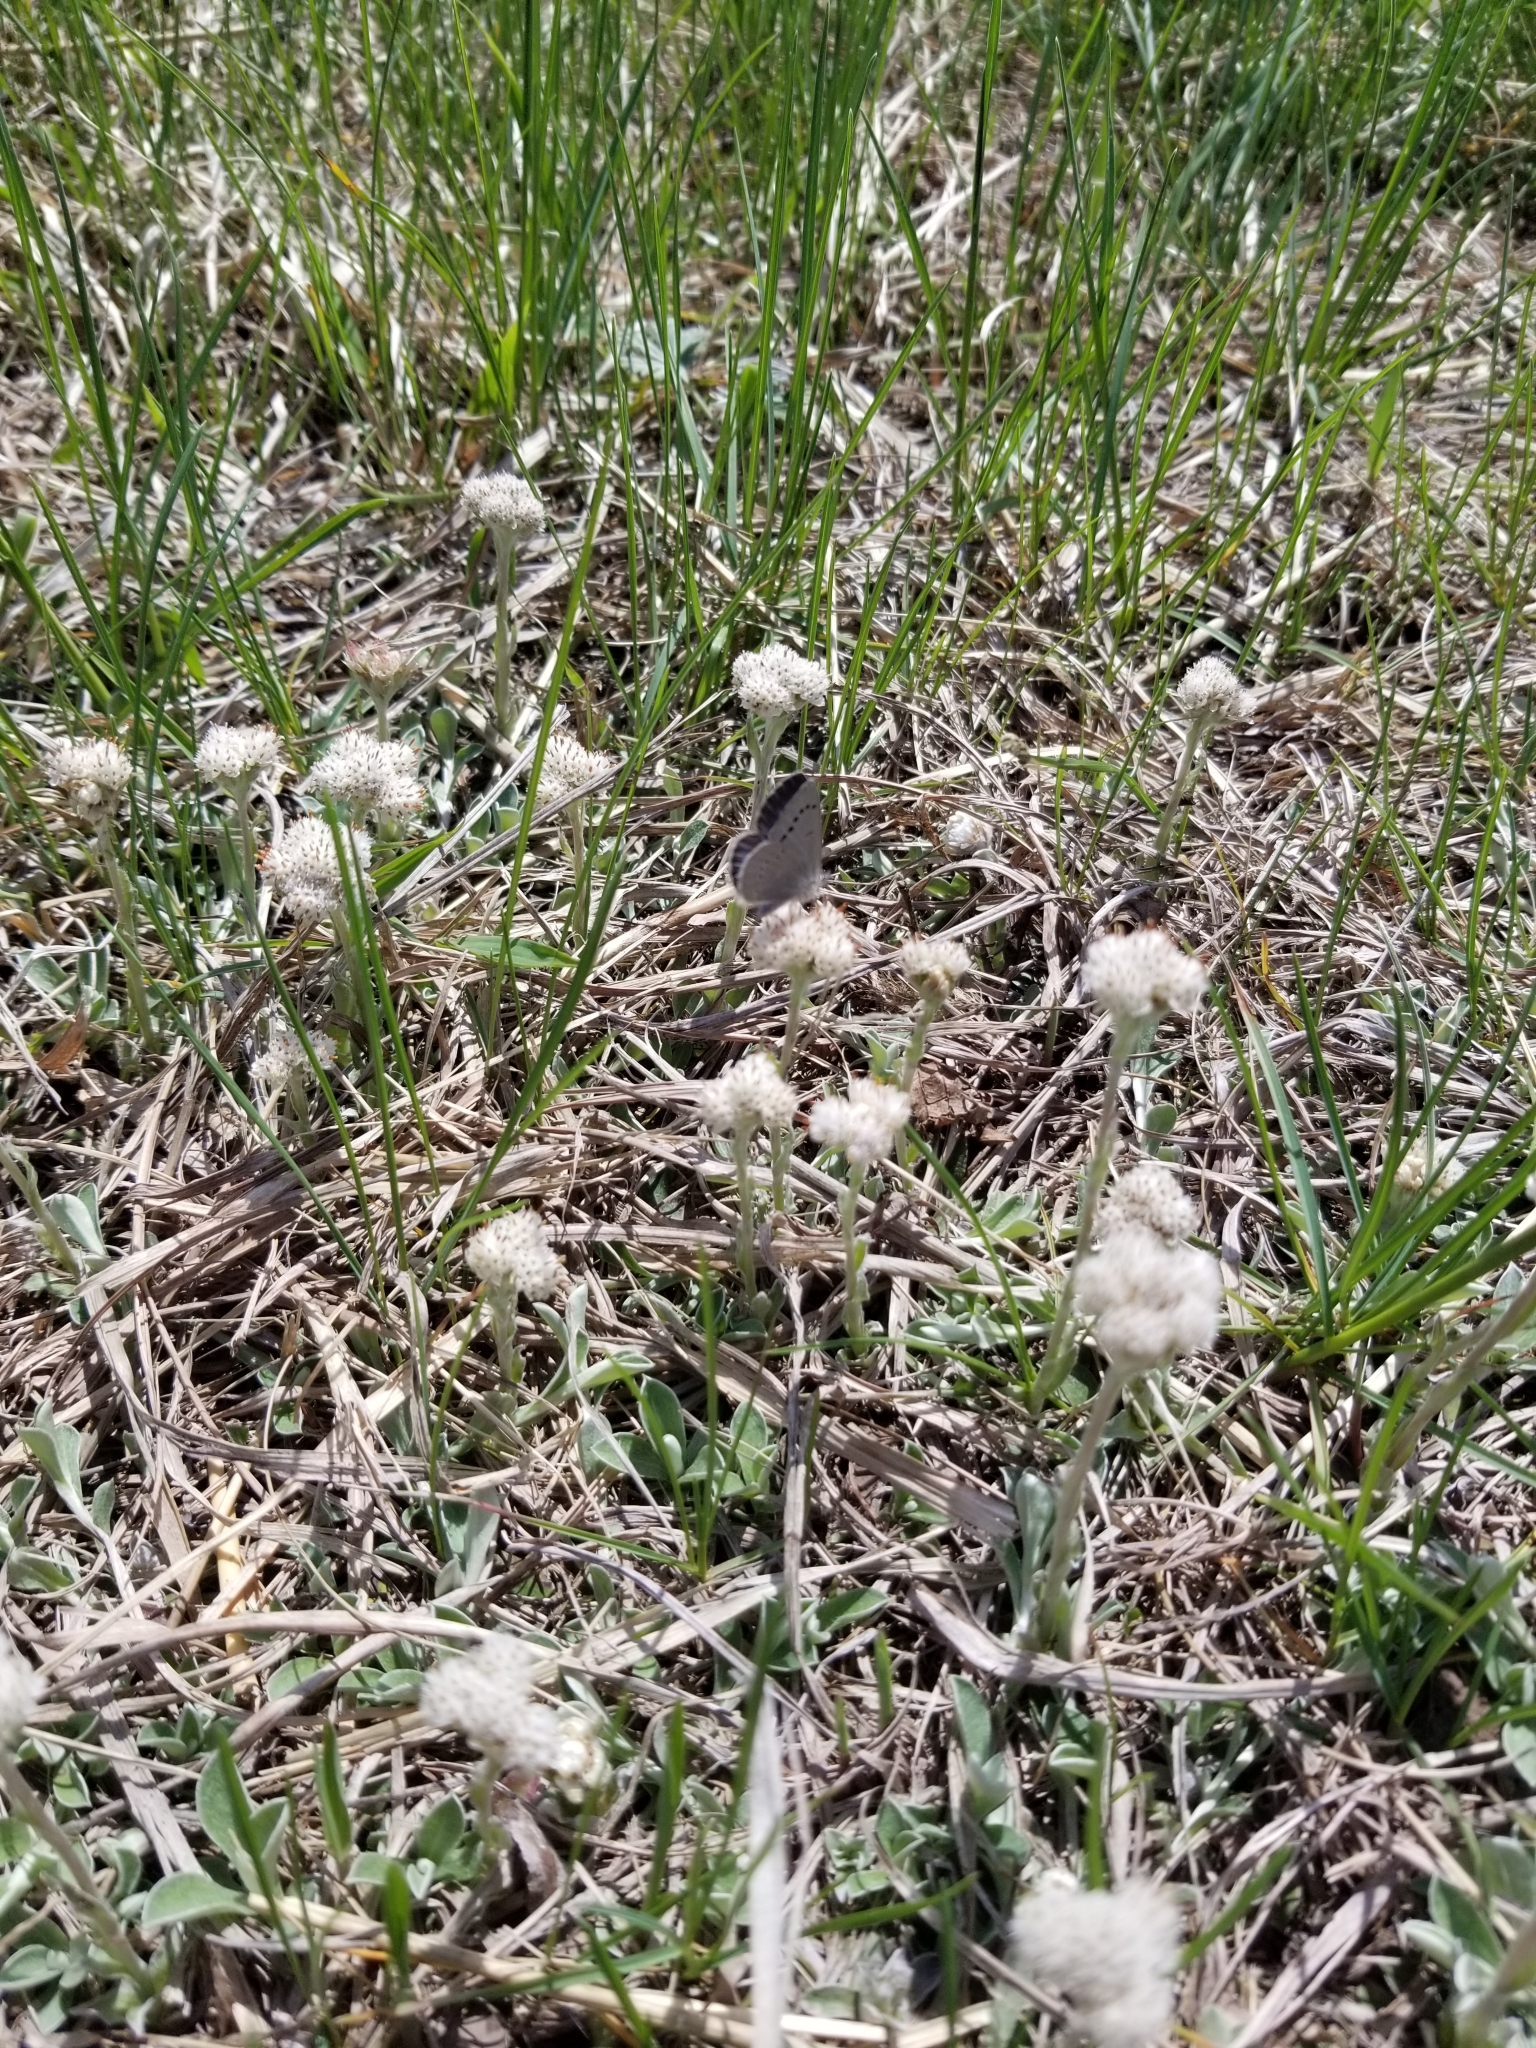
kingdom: Animalia
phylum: Arthropoda
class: Insecta
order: Lepidoptera
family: Lycaenidae
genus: Glaucopsyche
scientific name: Glaucopsyche lygdamus
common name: Silvery blue
